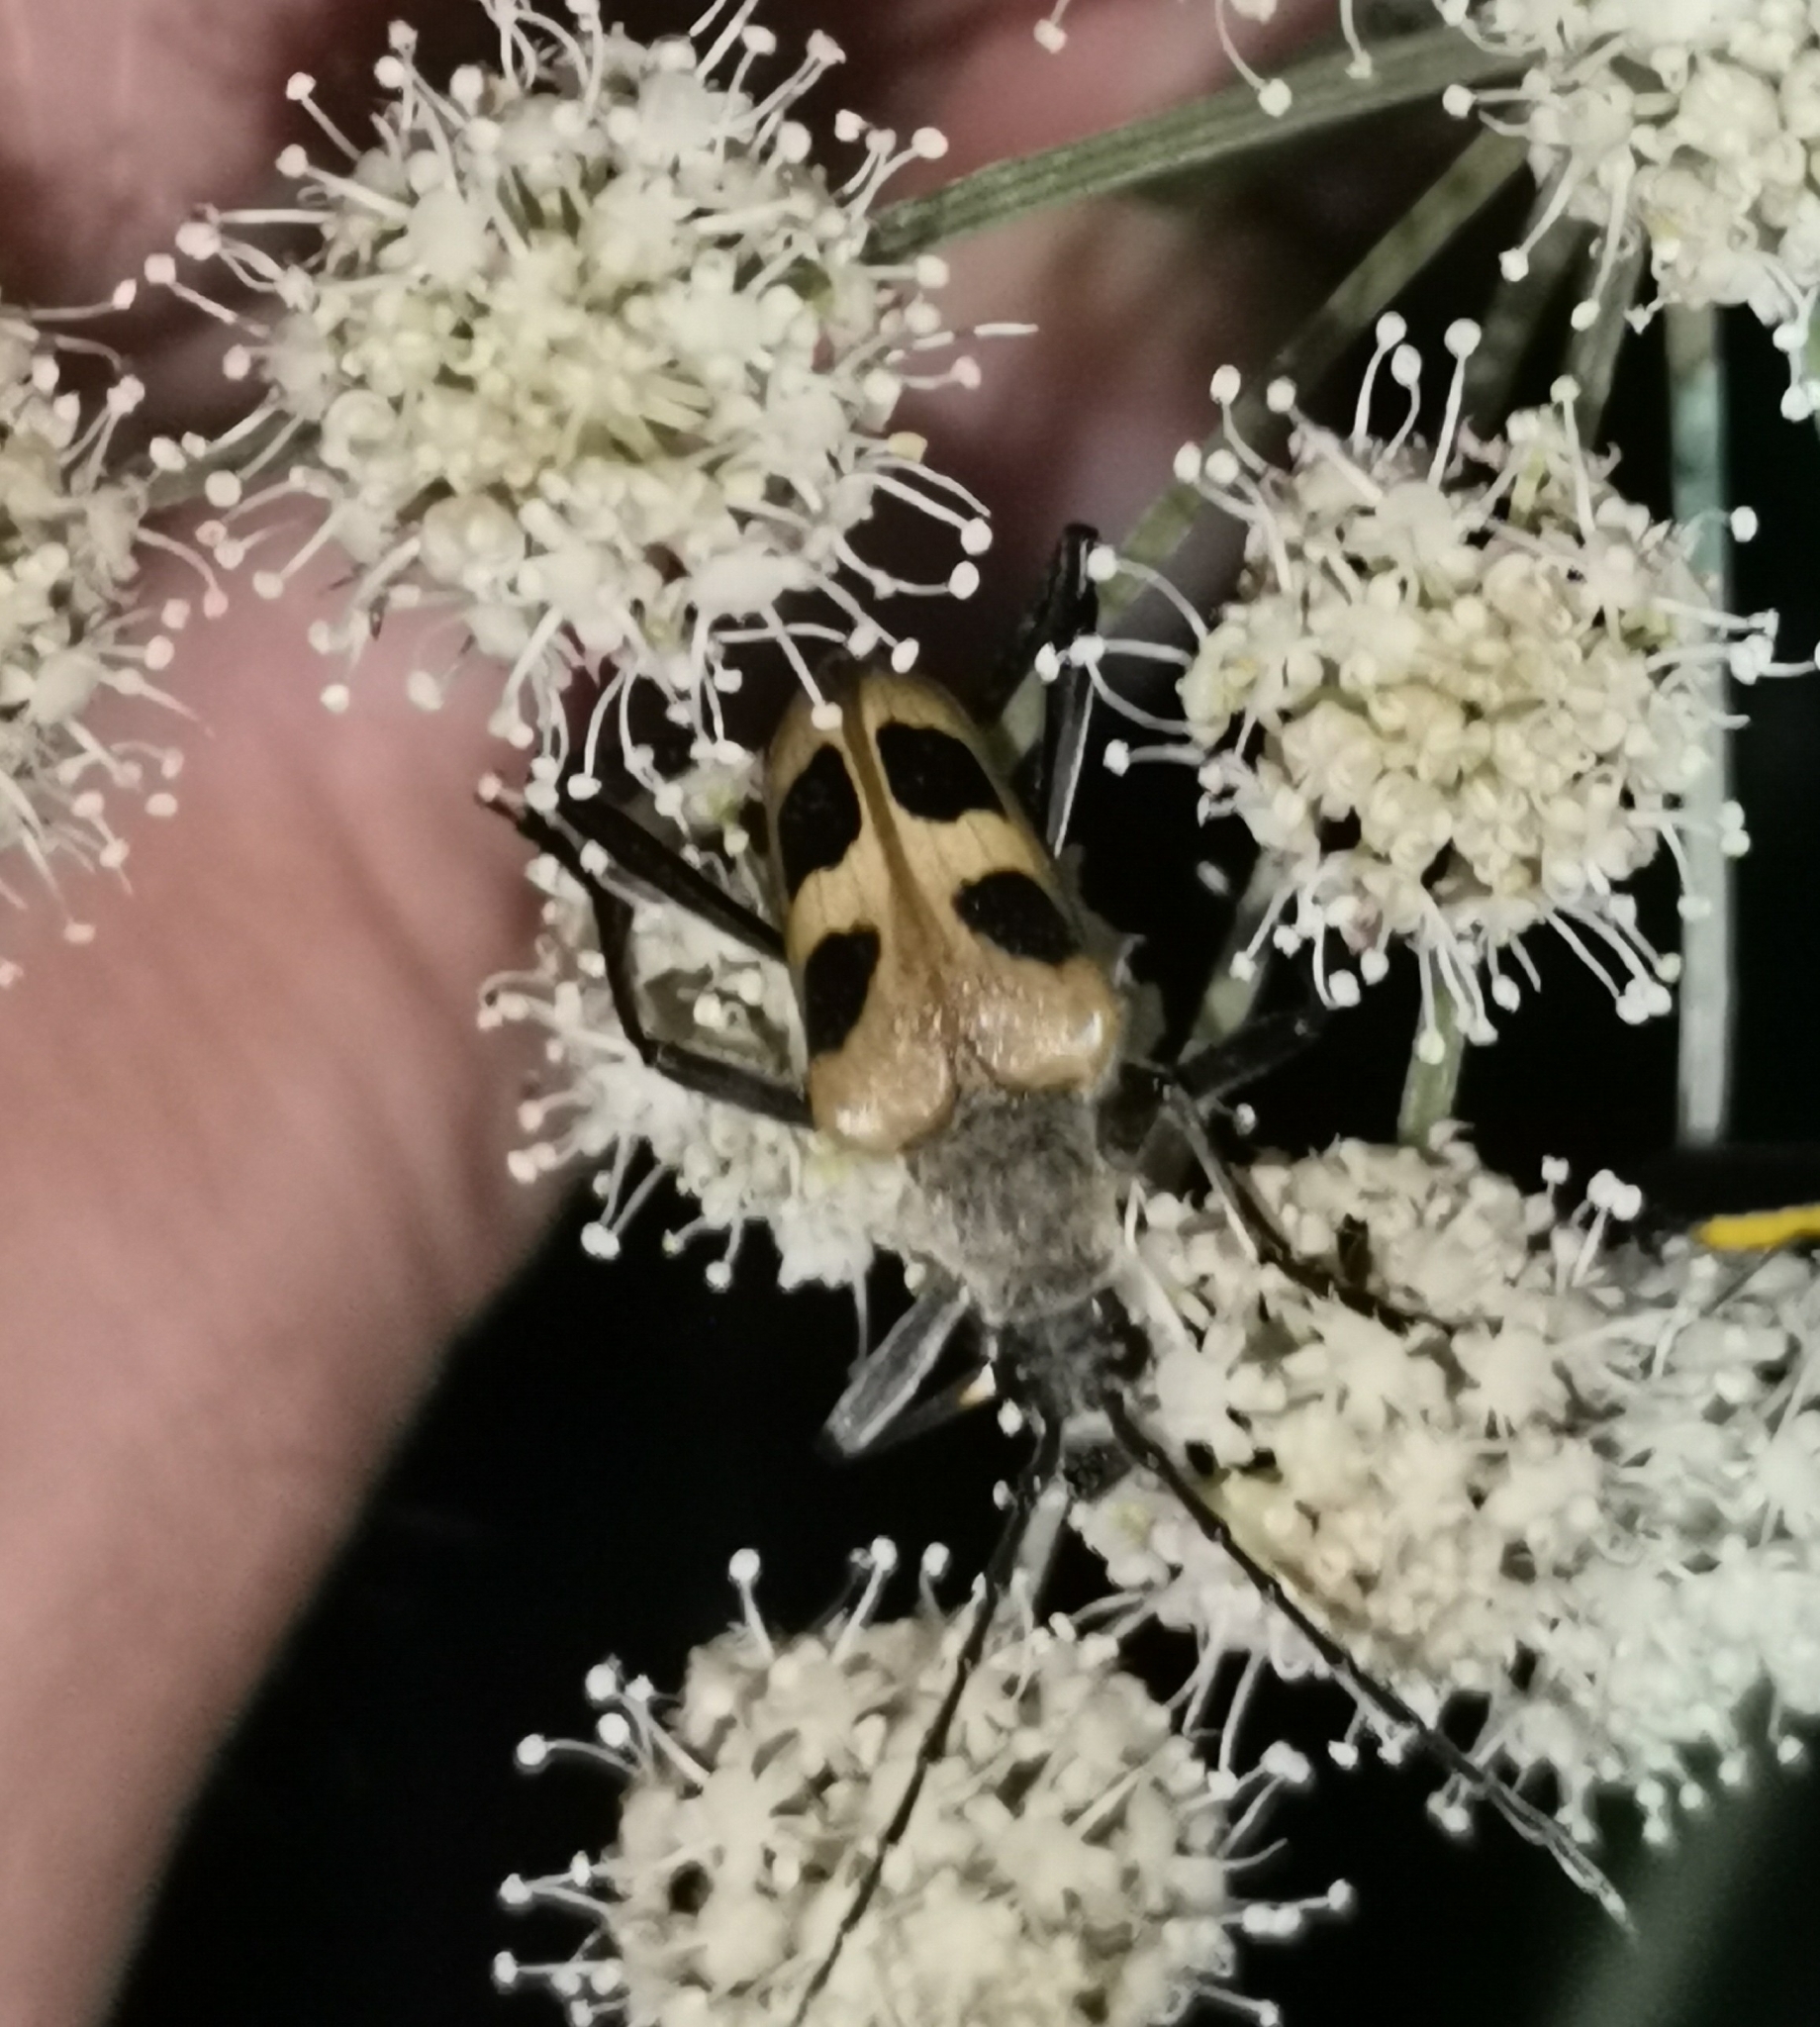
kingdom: Animalia
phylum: Arthropoda
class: Insecta
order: Coleoptera
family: Cerambycidae
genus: Pachyta
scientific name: Pachyta quadrimaculata
